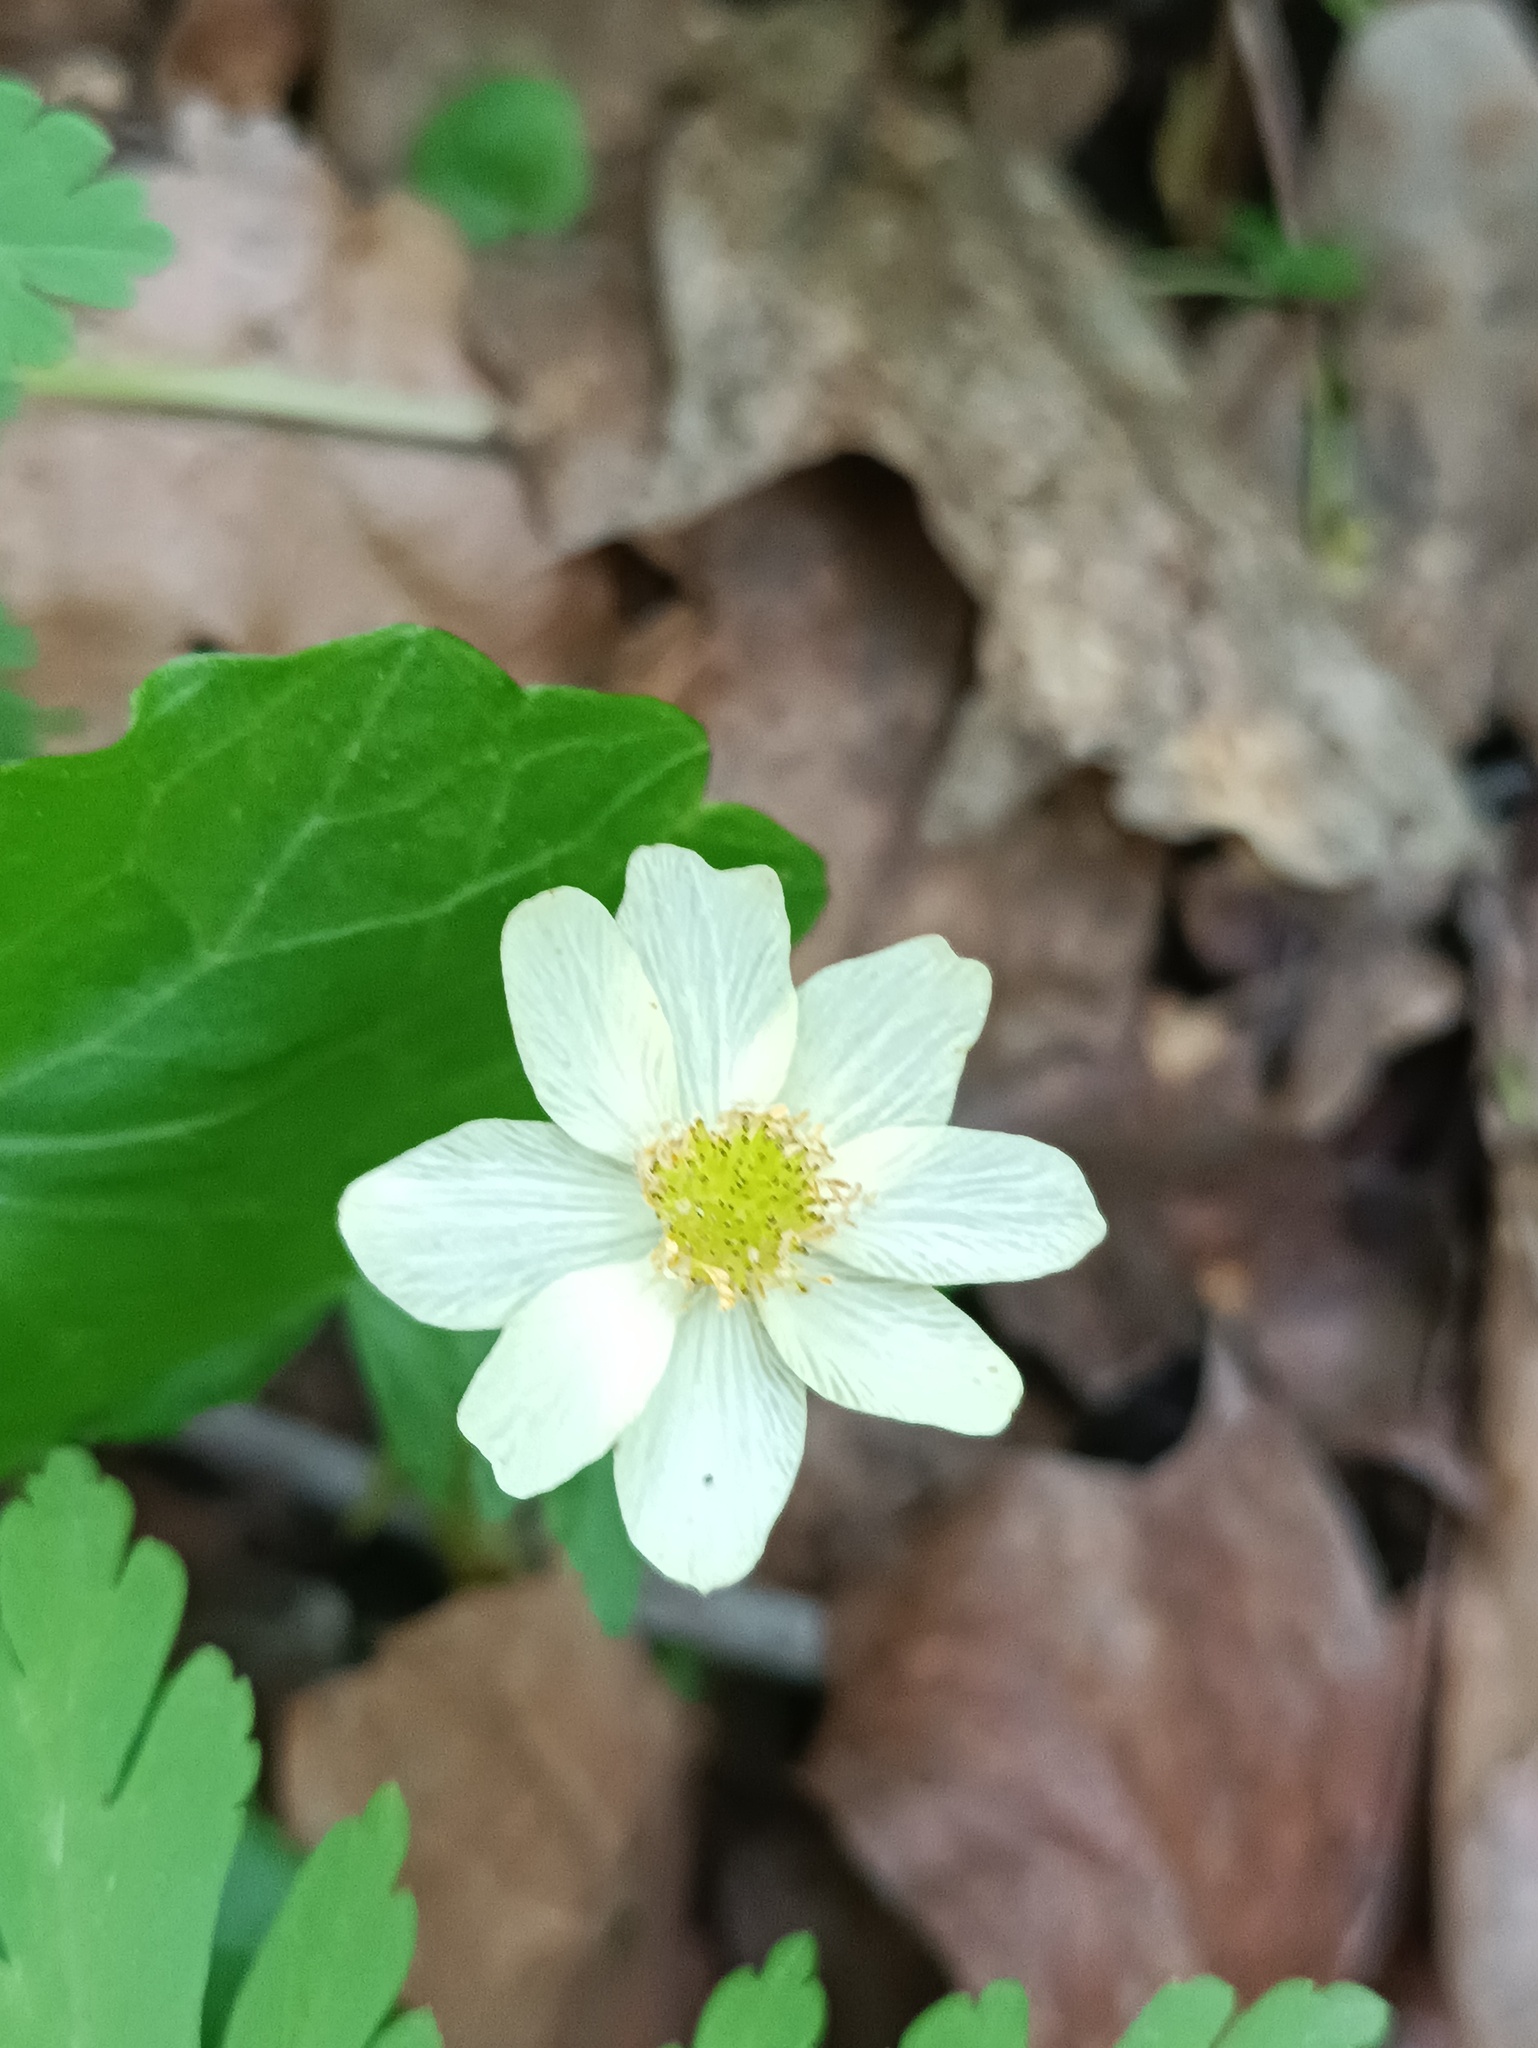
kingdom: Plantae
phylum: Tracheophyta
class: Magnoliopsida
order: Ranunculales
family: Ranunculaceae
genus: Anemone
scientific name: Anemone altaica
